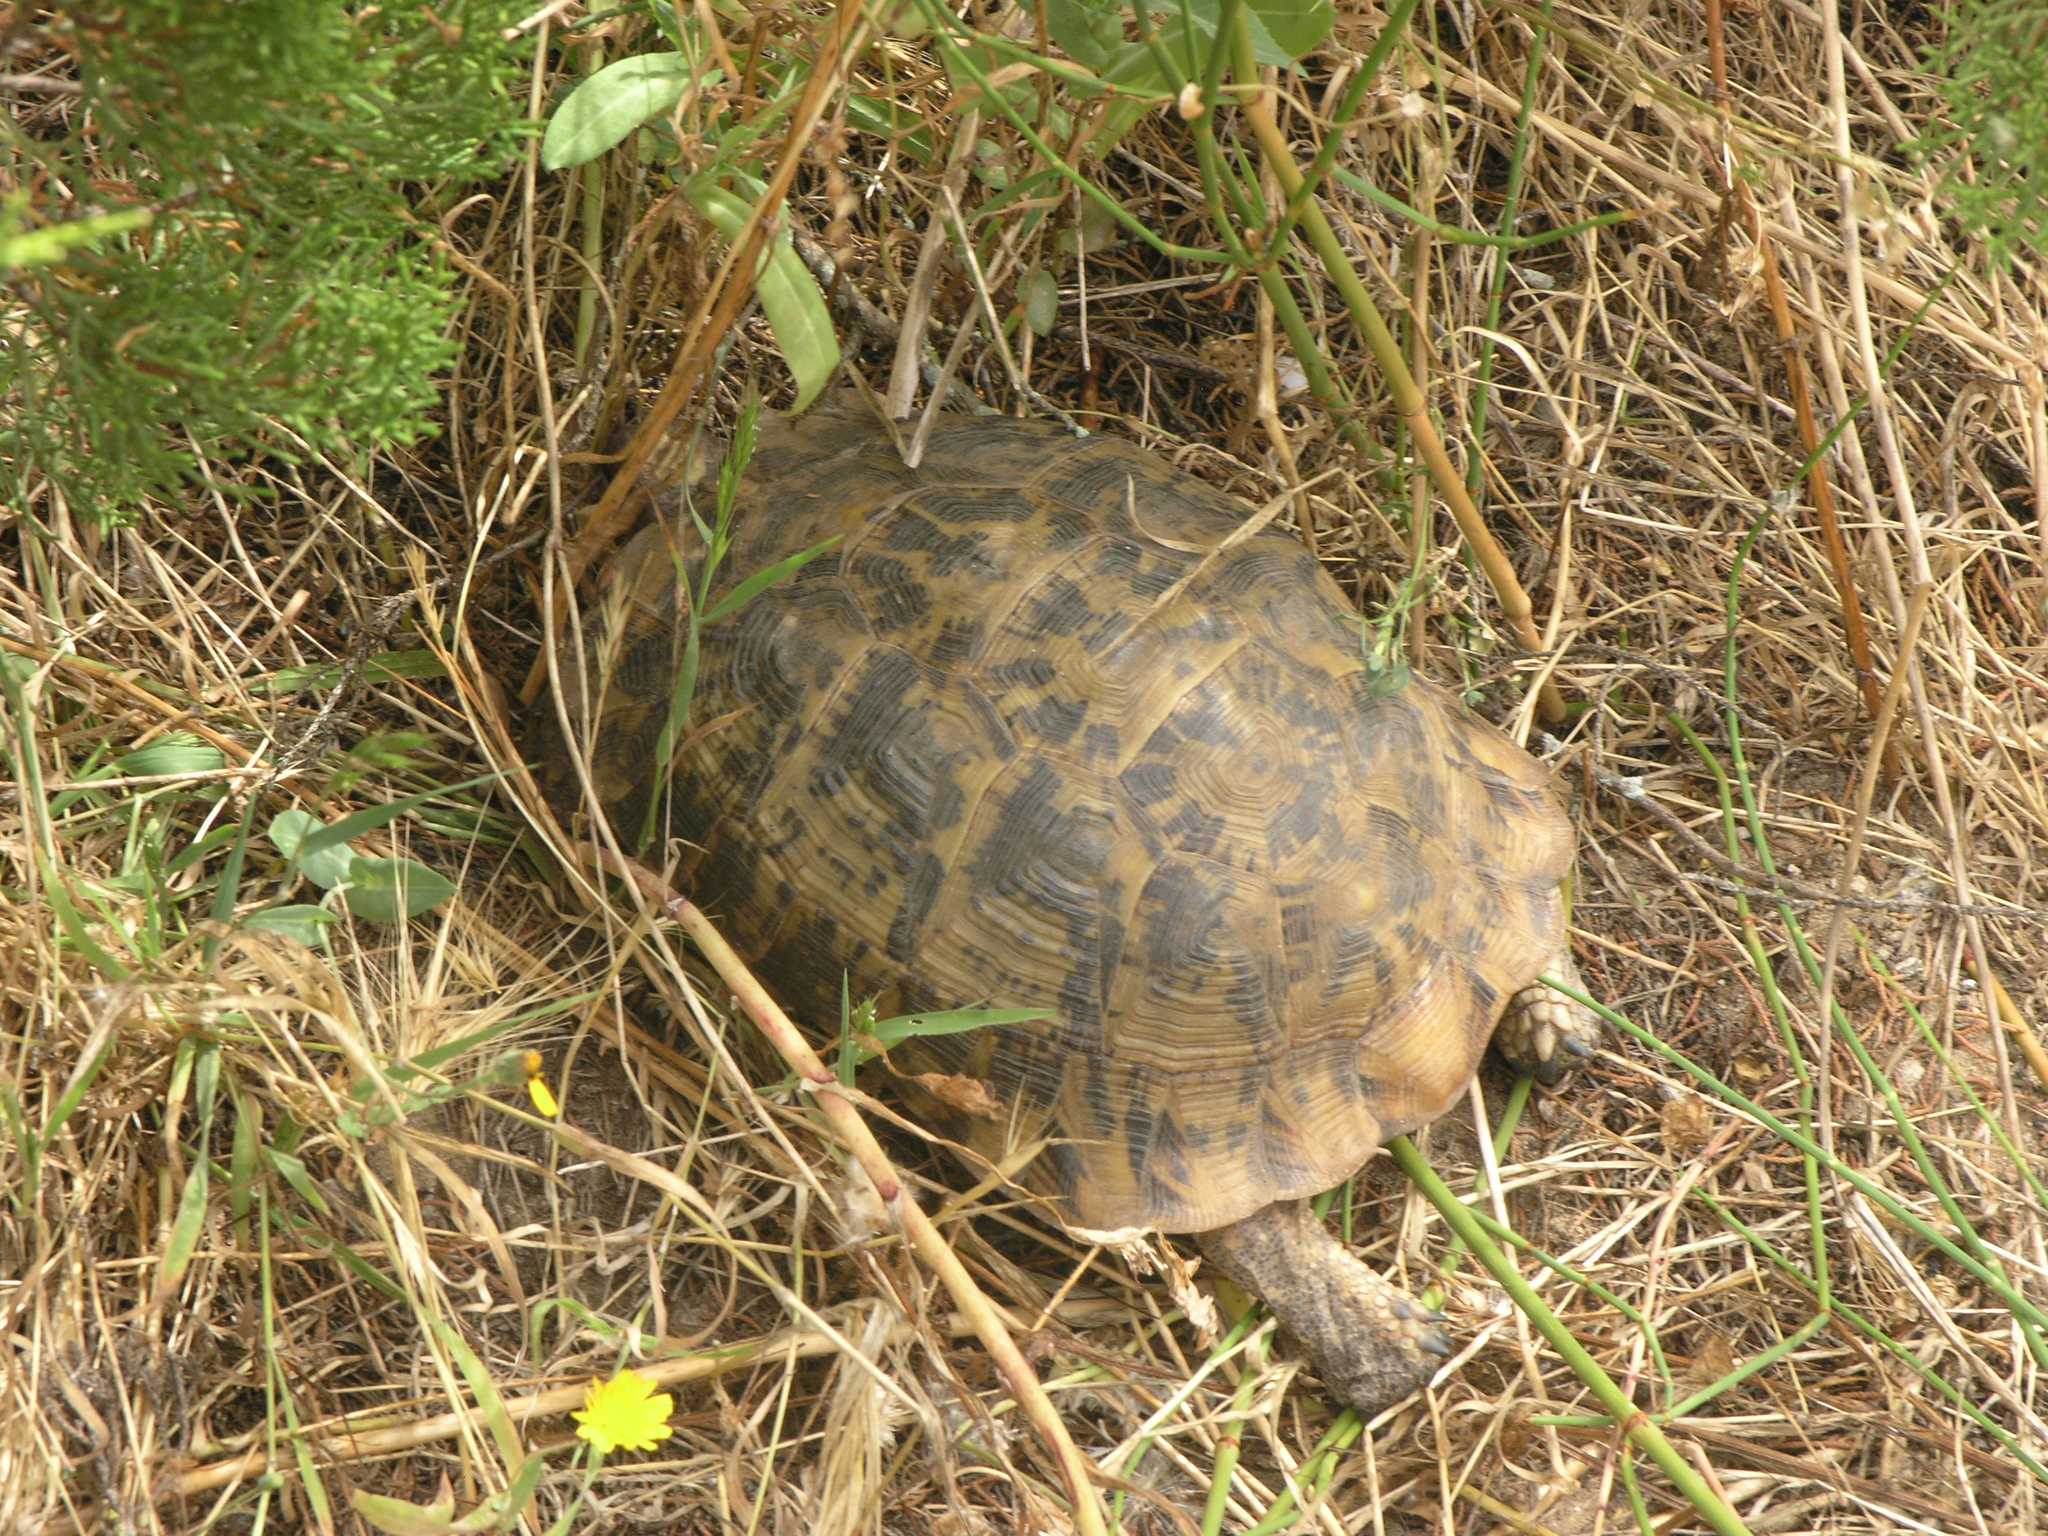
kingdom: Animalia
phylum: Chordata
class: Testudines
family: Testudinidae
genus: Testudo
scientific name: Testudo graeca
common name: Common tortoise
